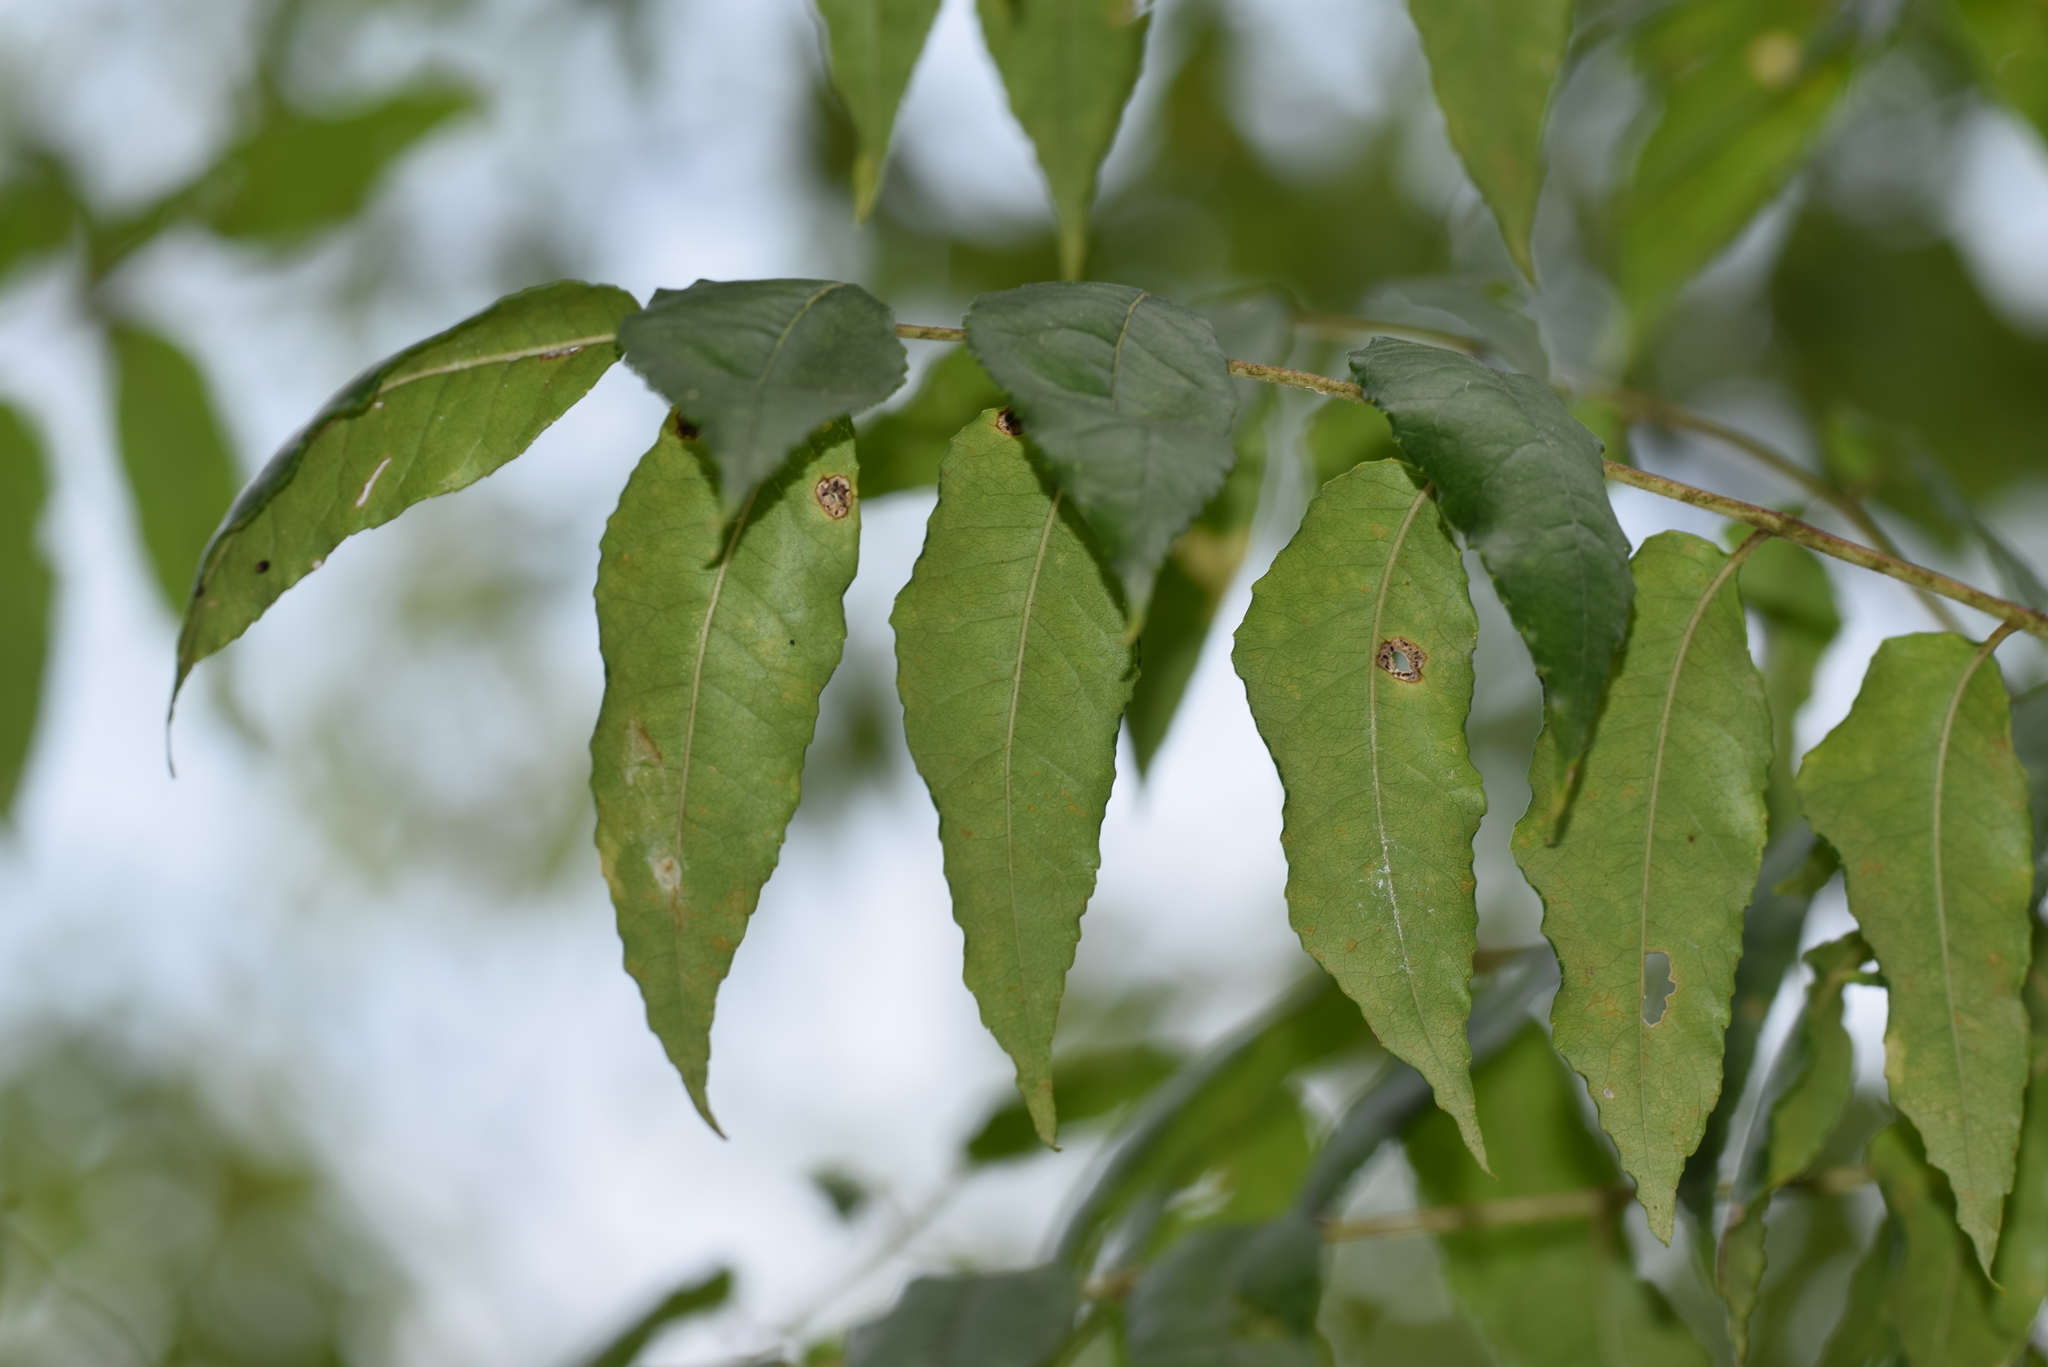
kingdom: Plantae
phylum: Tracheophyta
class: Magnoliopsida
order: Sapindales
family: Rutaceae
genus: Zanthoxylum
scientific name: Zanthoxylum clava-herculis
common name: Hercules'-club
